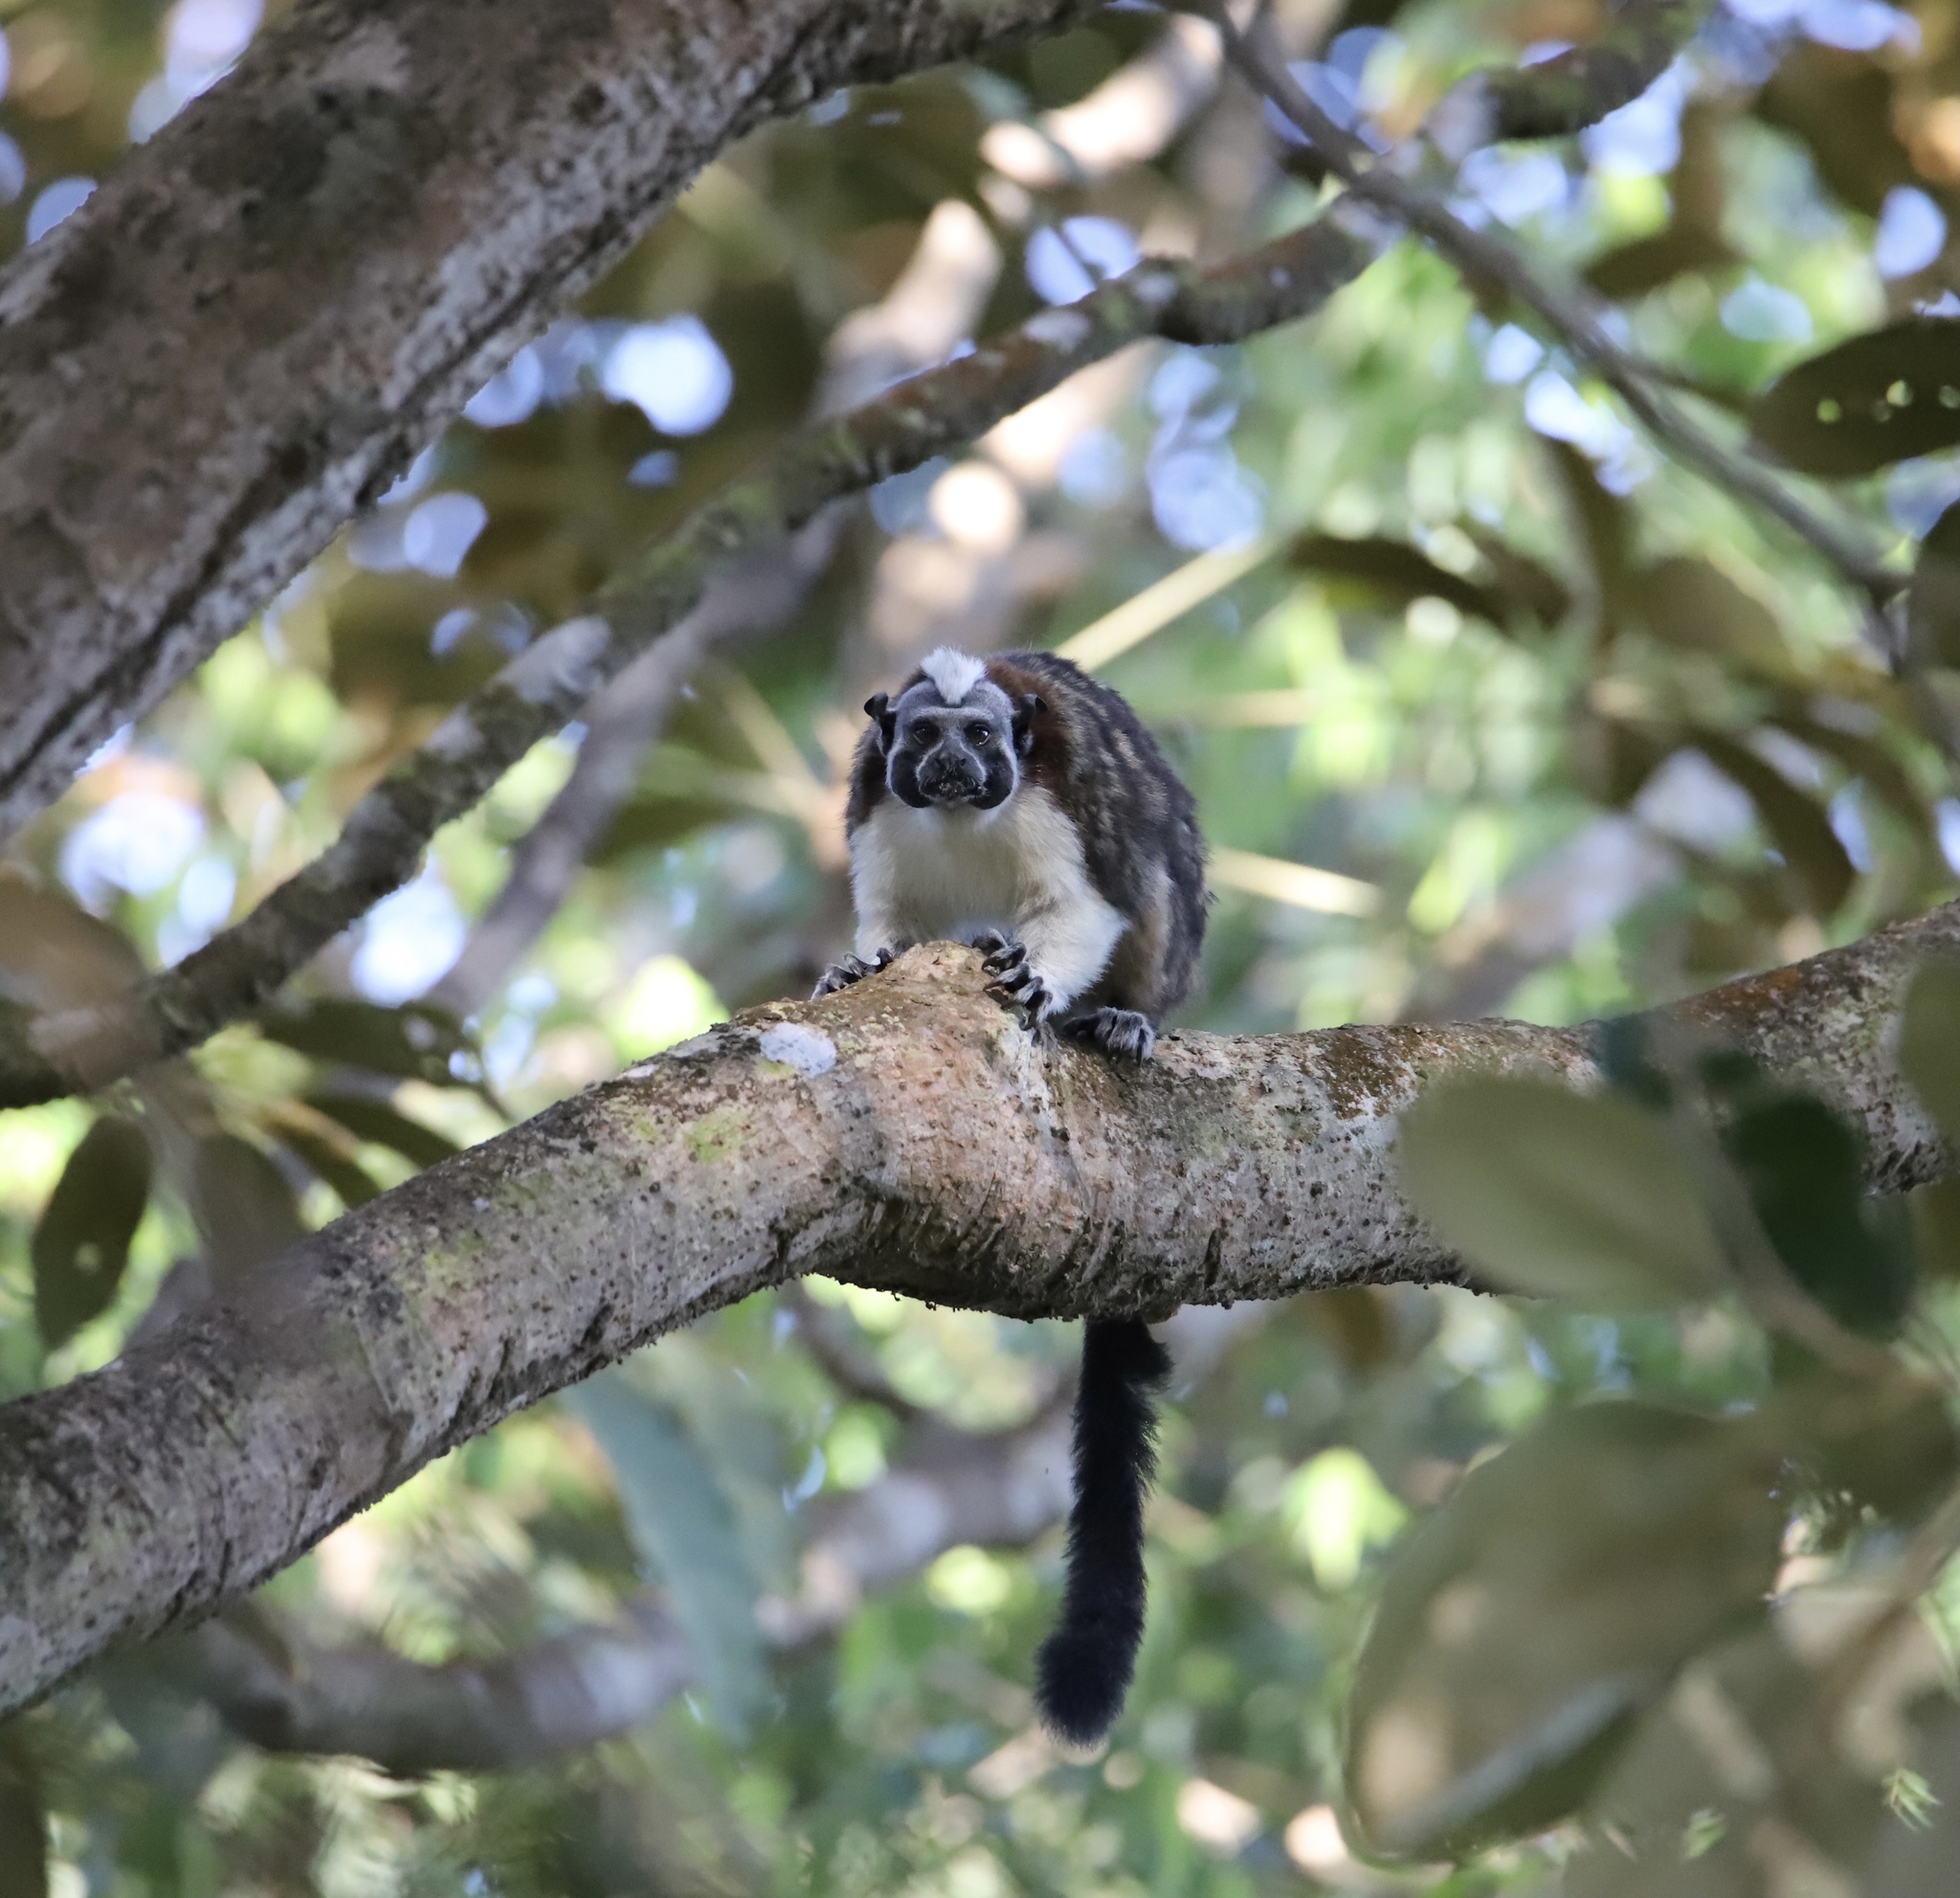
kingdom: Animalia
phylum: Chordata
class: Mammalia
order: Primates
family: Callitrichidae
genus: Saguinus
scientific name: Saguinus geoffroyi
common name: Geoffroy s tamarin
